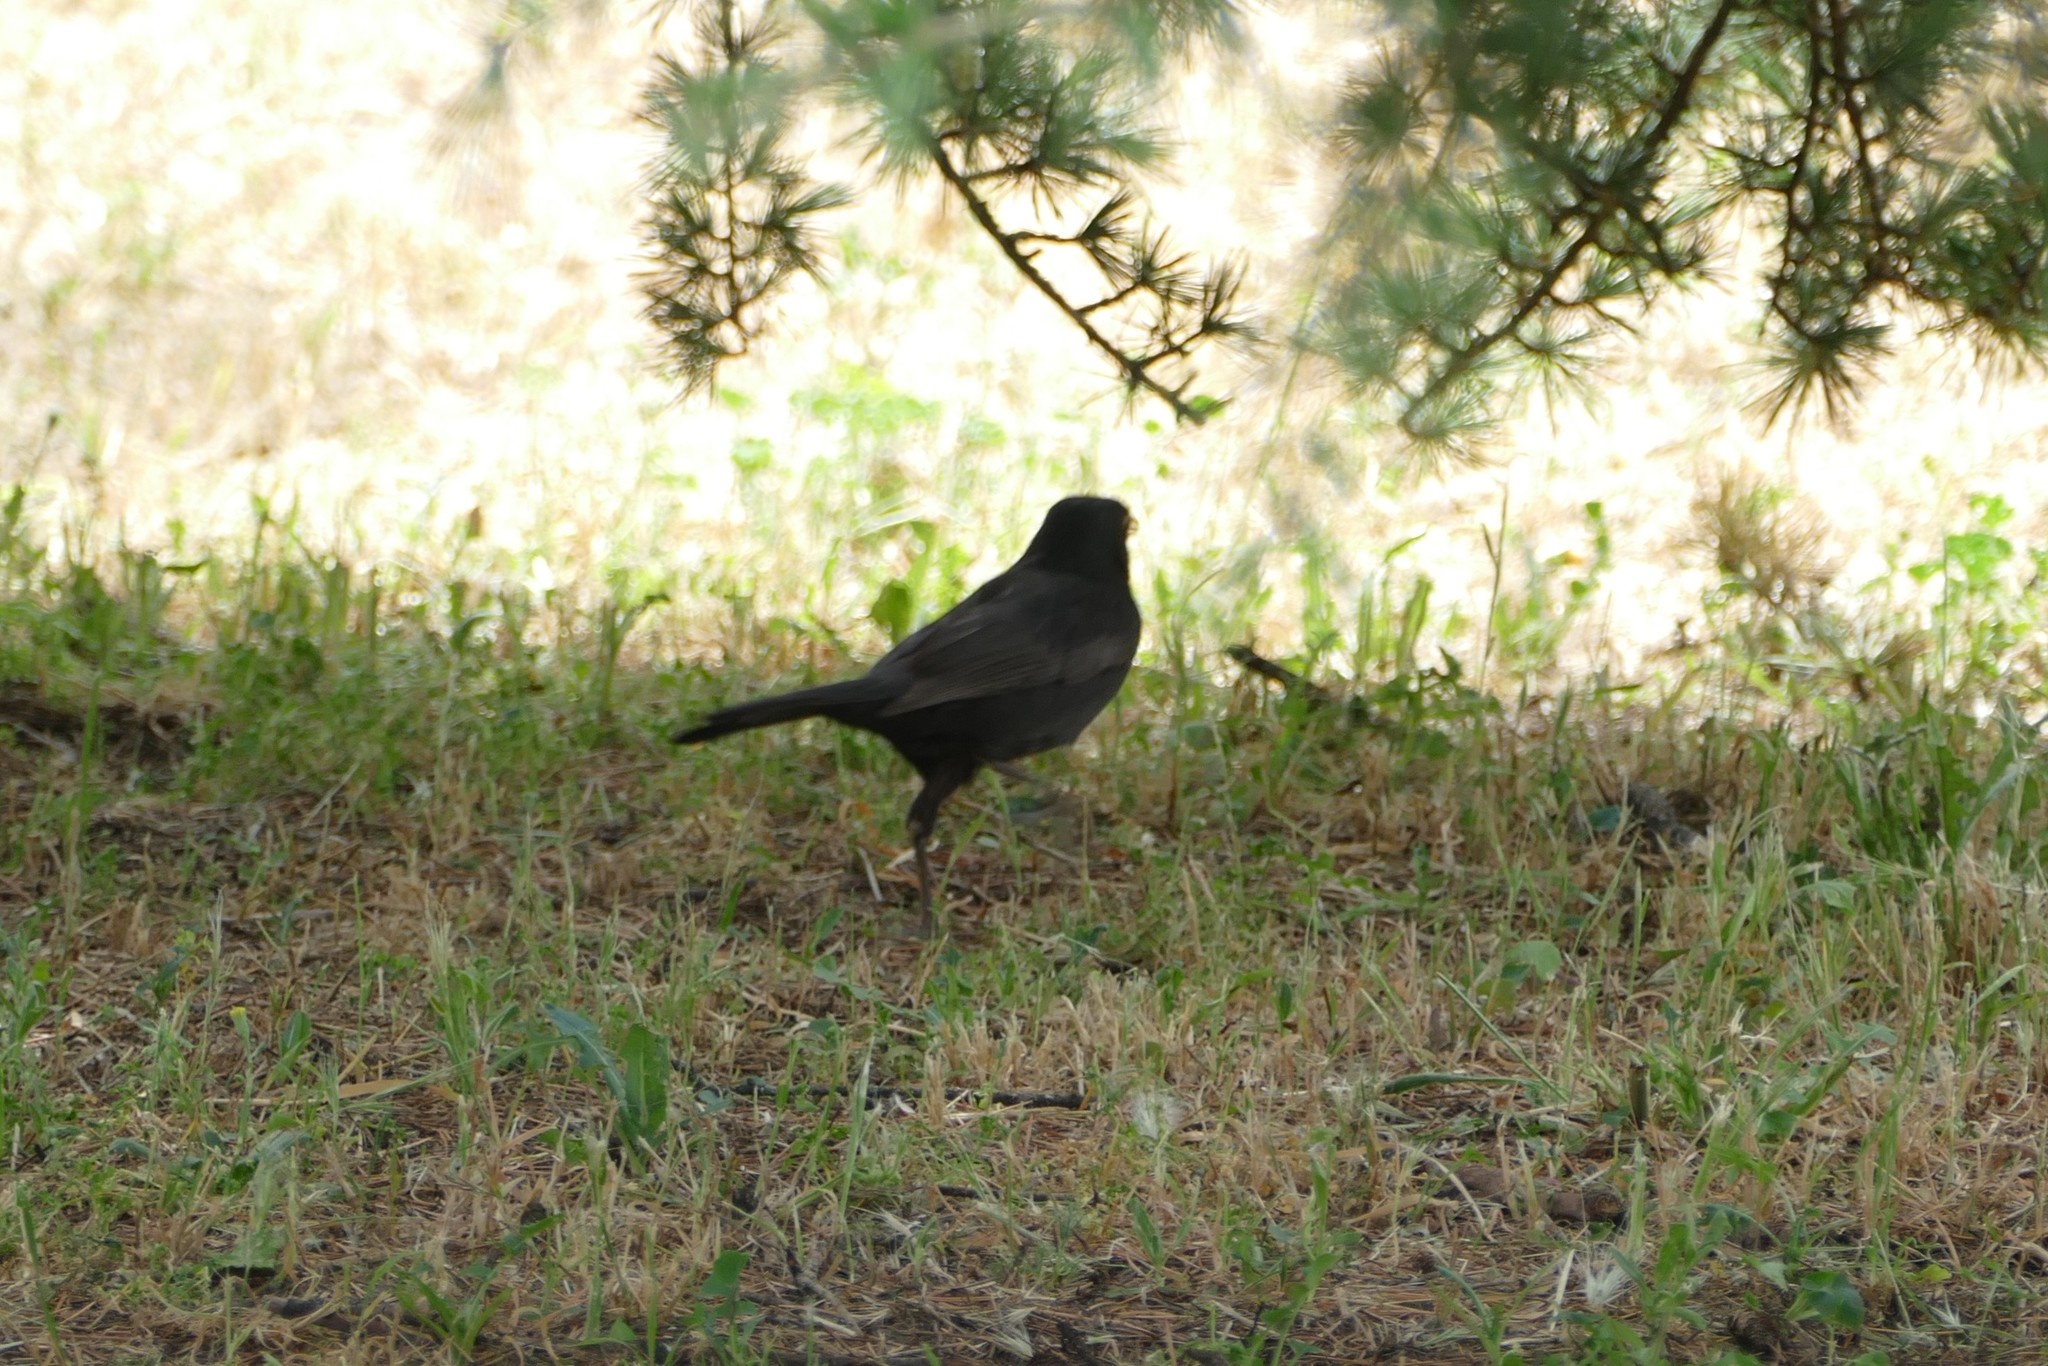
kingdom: Animalia
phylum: Chordata
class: Aves
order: Passeriformes
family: Turdidae
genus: Turdus
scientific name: Turdus merula
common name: Common blackbird
